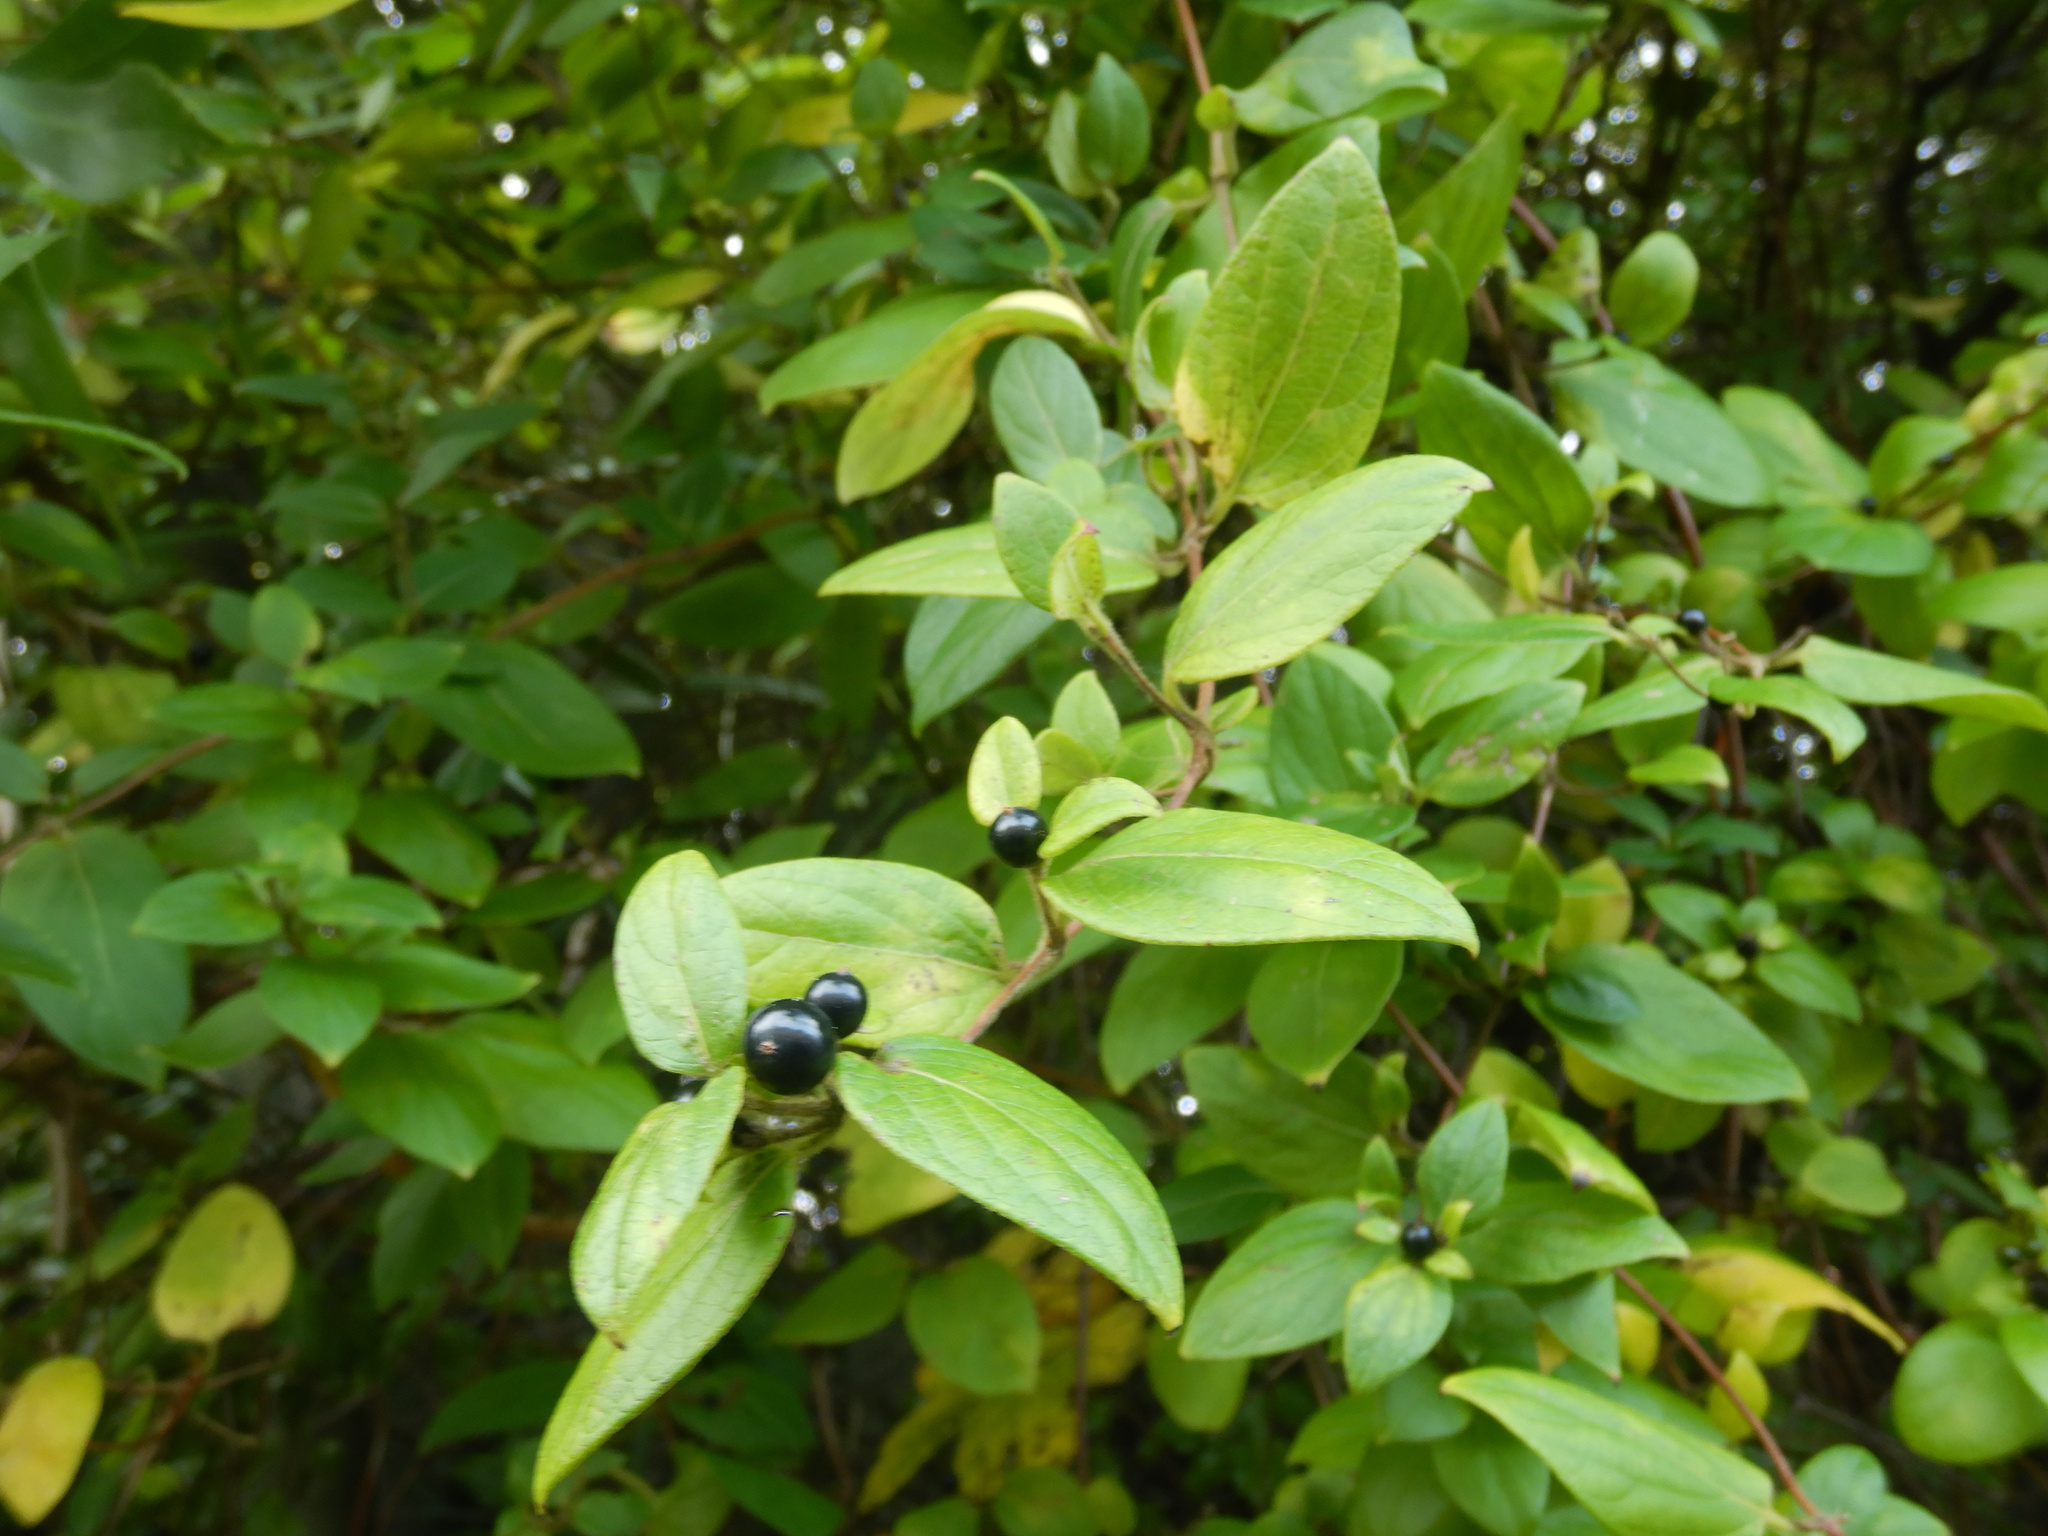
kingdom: Plantae
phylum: Tracheophyta
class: Magnoliopsida
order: Dipsacales
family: Caprifoliaceae
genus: Lonicera
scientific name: Lonicera japonica
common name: Japanese honeysuckle
